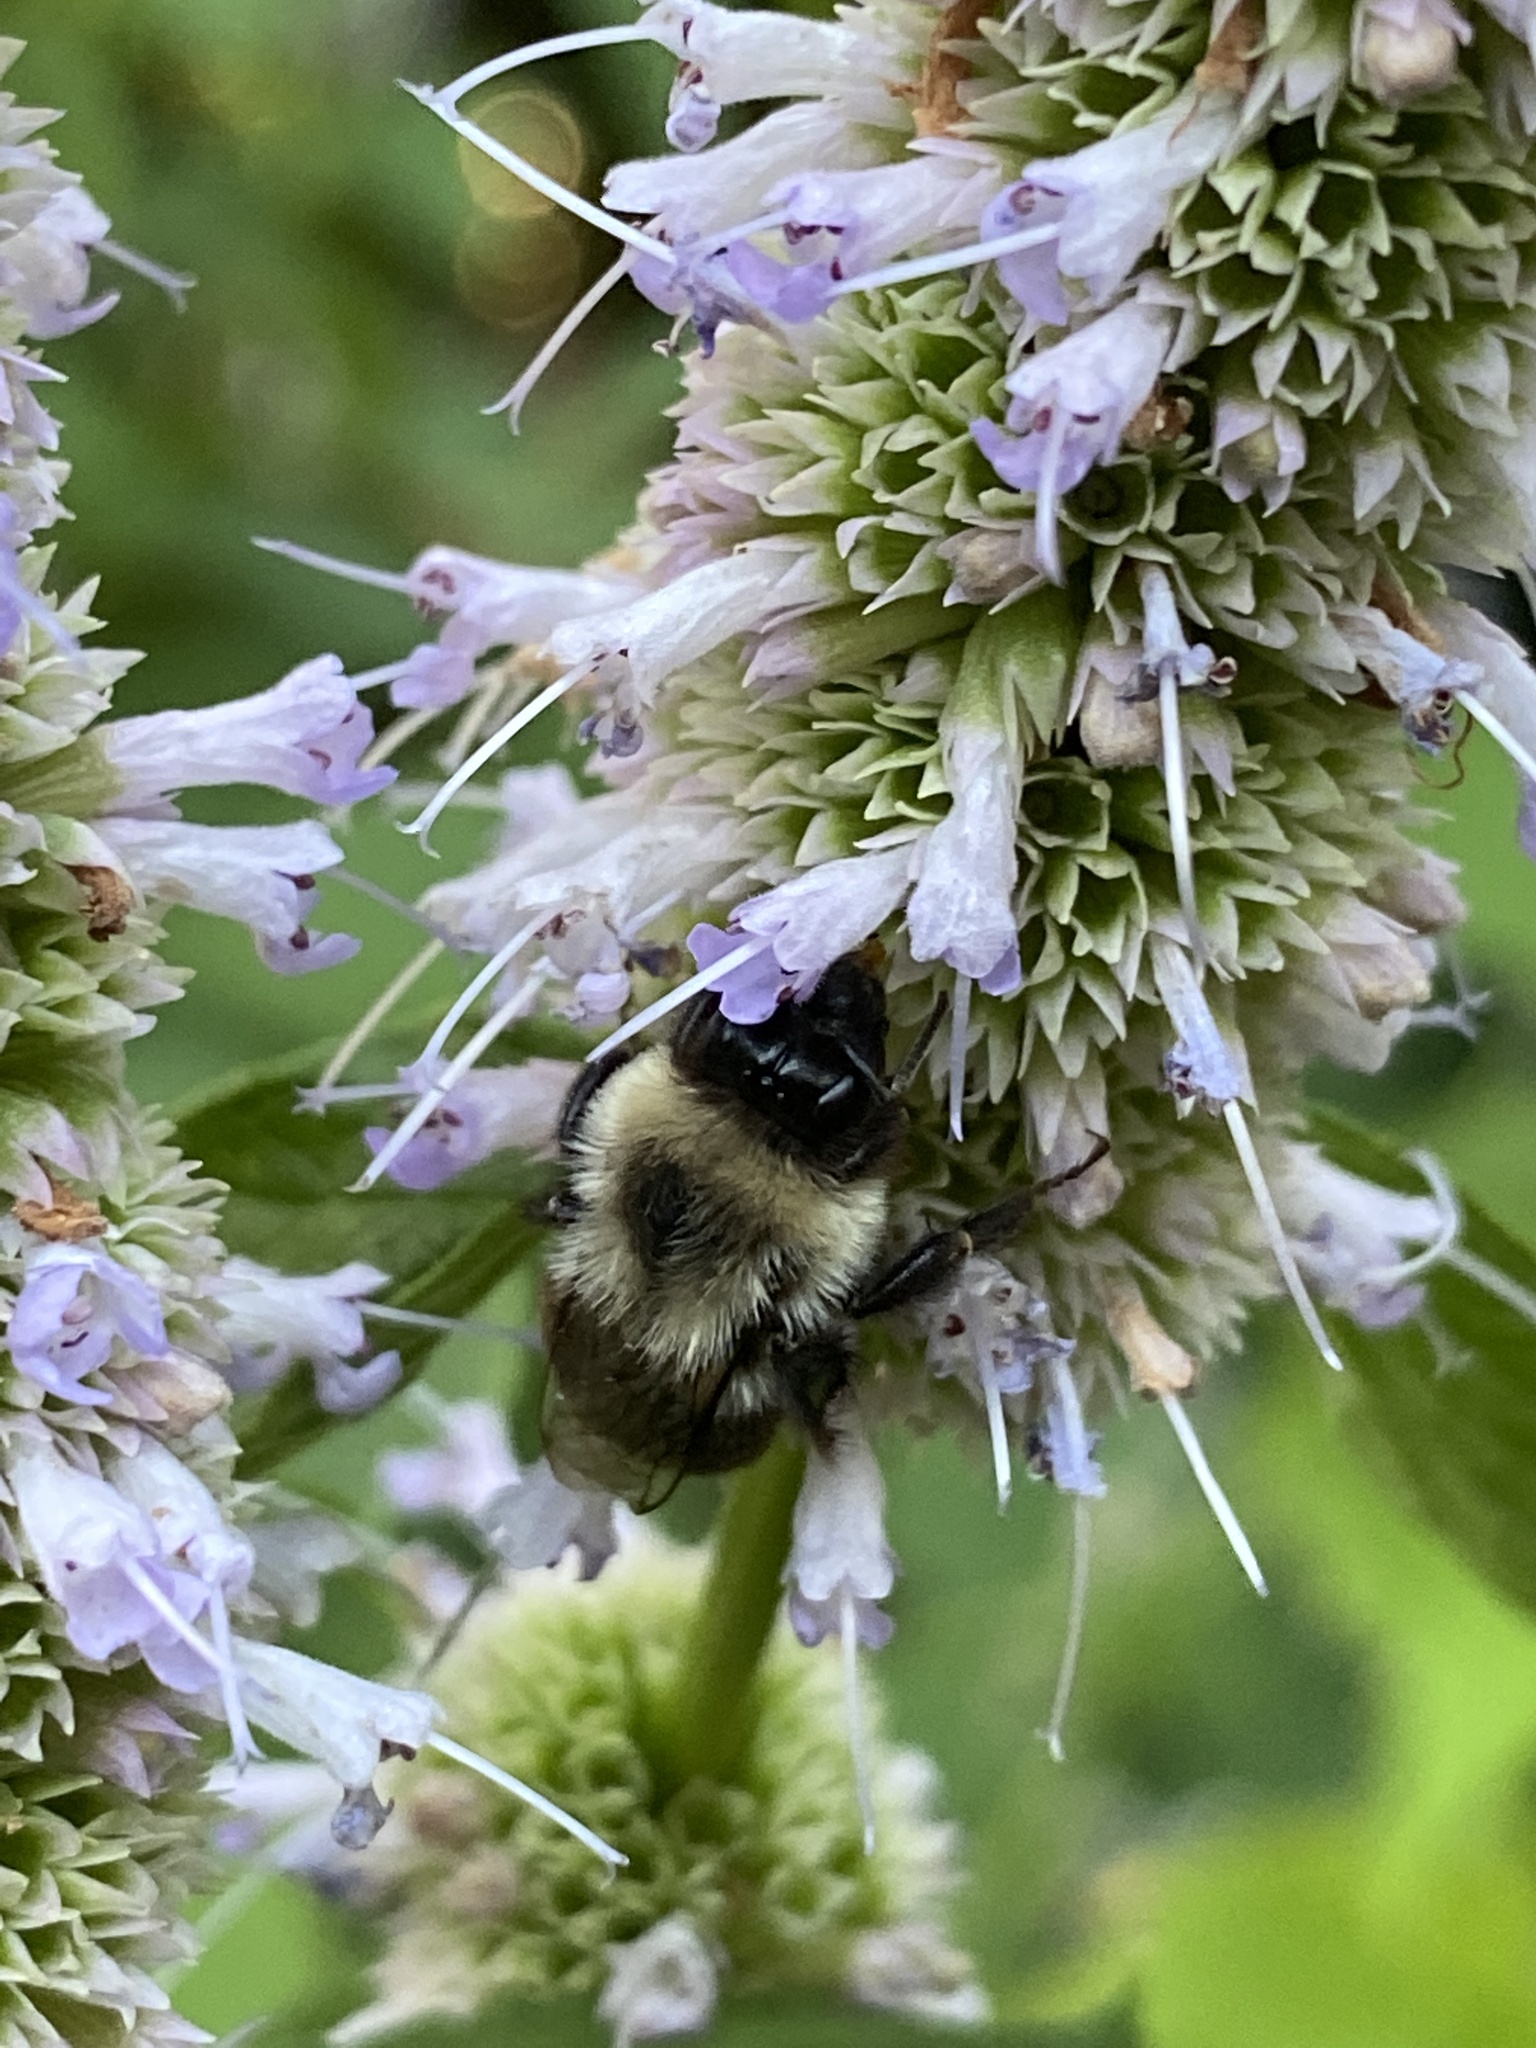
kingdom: Animalia
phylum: Arthropoda
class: Insecta
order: Hymenoptera
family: Apidae
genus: Bombus
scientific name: Bombus impatiens
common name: Common eastern bumble bee
